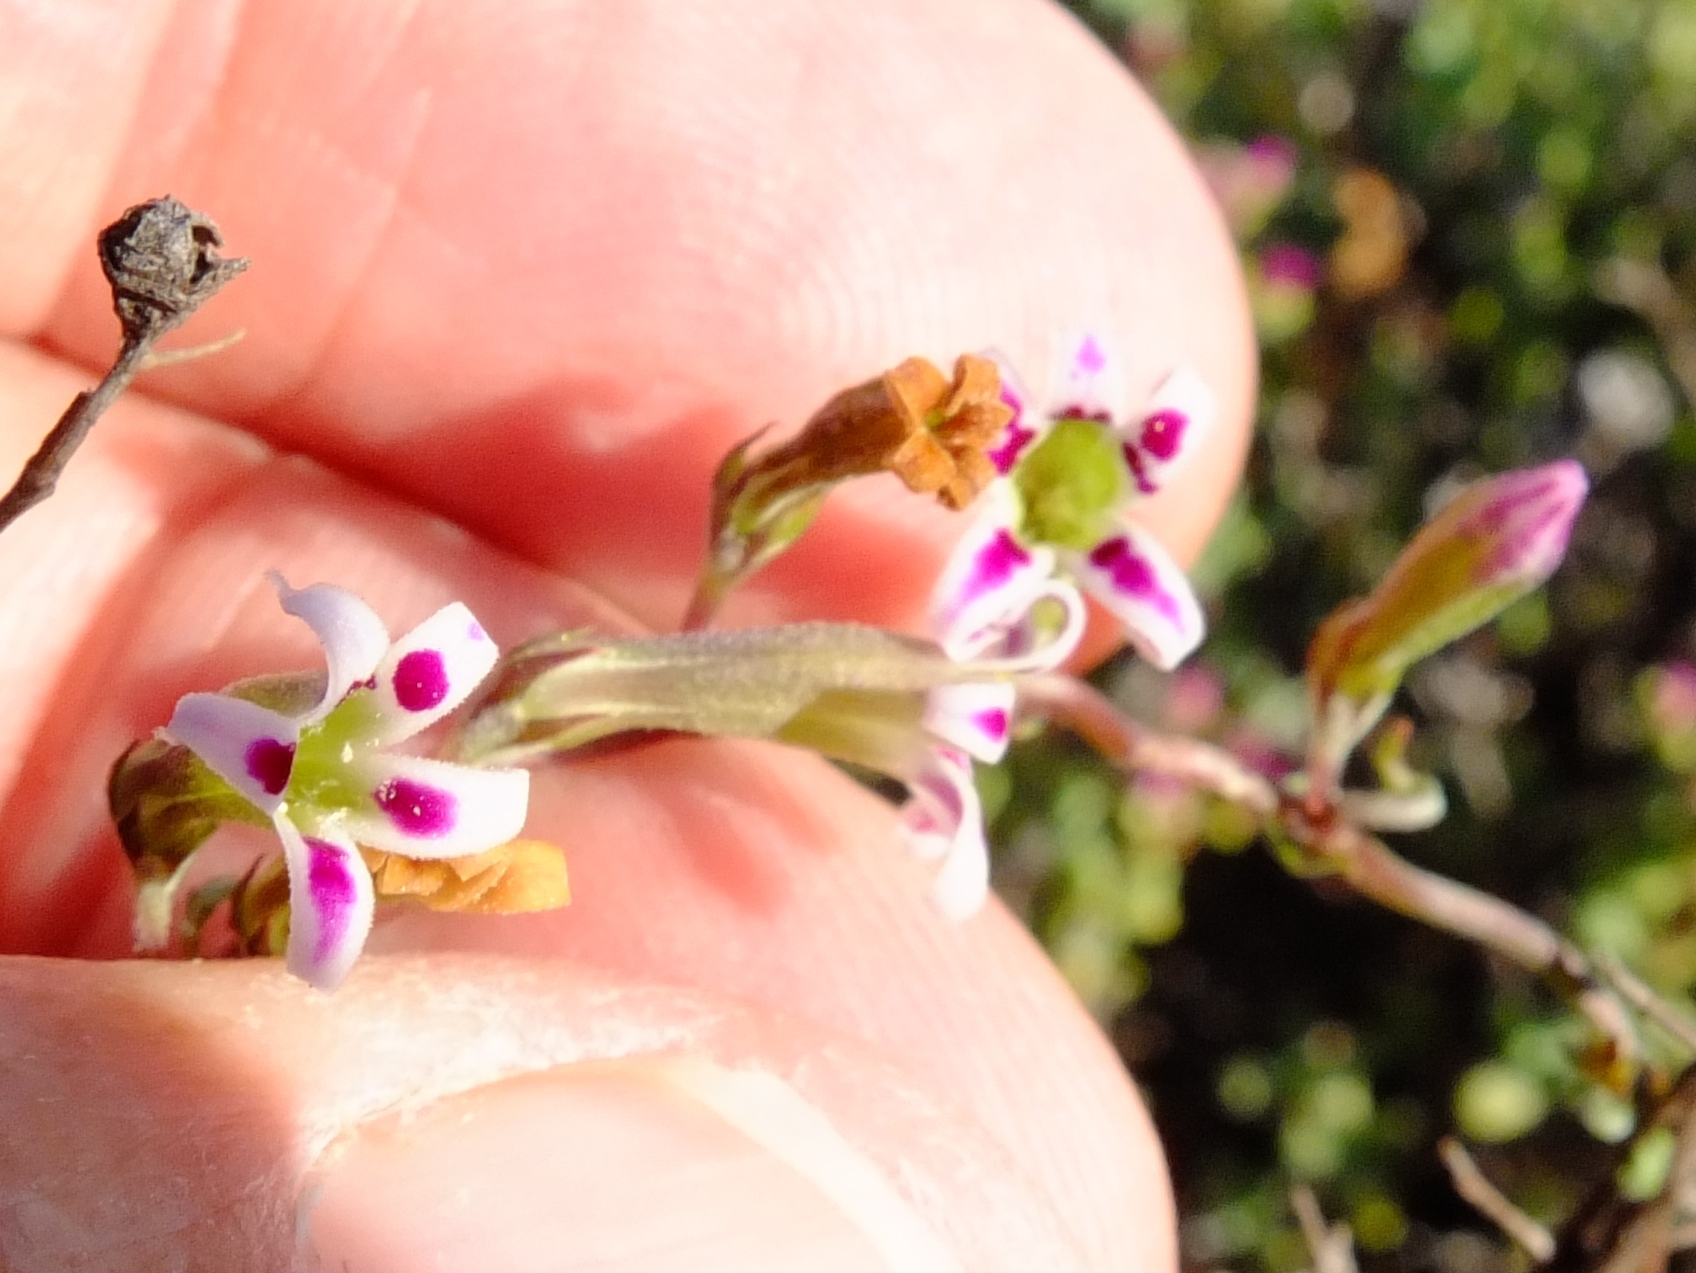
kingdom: Plantae
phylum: Tracheophyta
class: Magnoliopsida
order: Asterales
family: Campanulaceae
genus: Cyphia
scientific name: Cyphia longiflora
